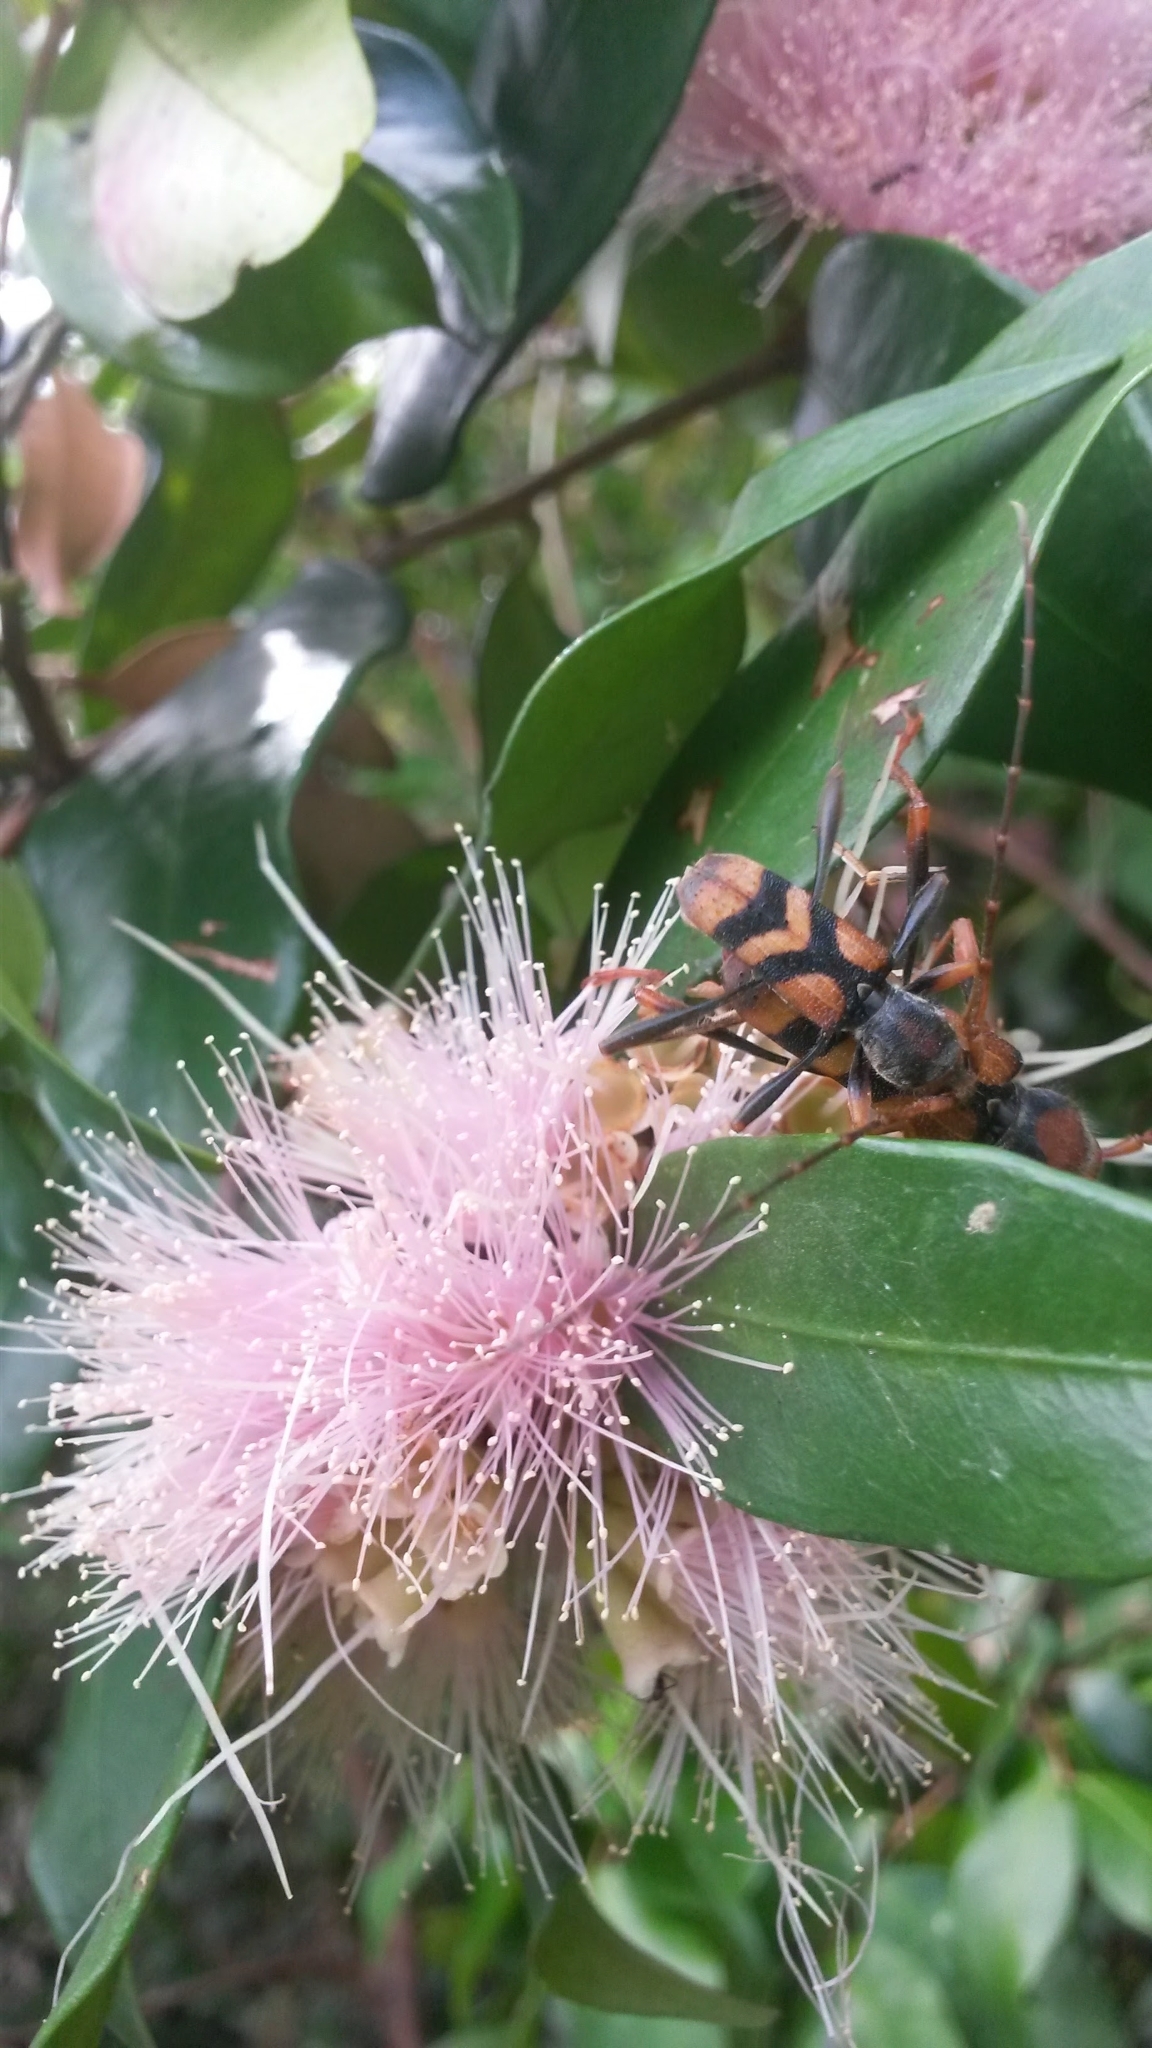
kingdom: Animalia
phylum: Arthropoda
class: Insecta
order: Coleoptera
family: Cerambycidae
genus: Aridaeus
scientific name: Aridaeus thoracicus
